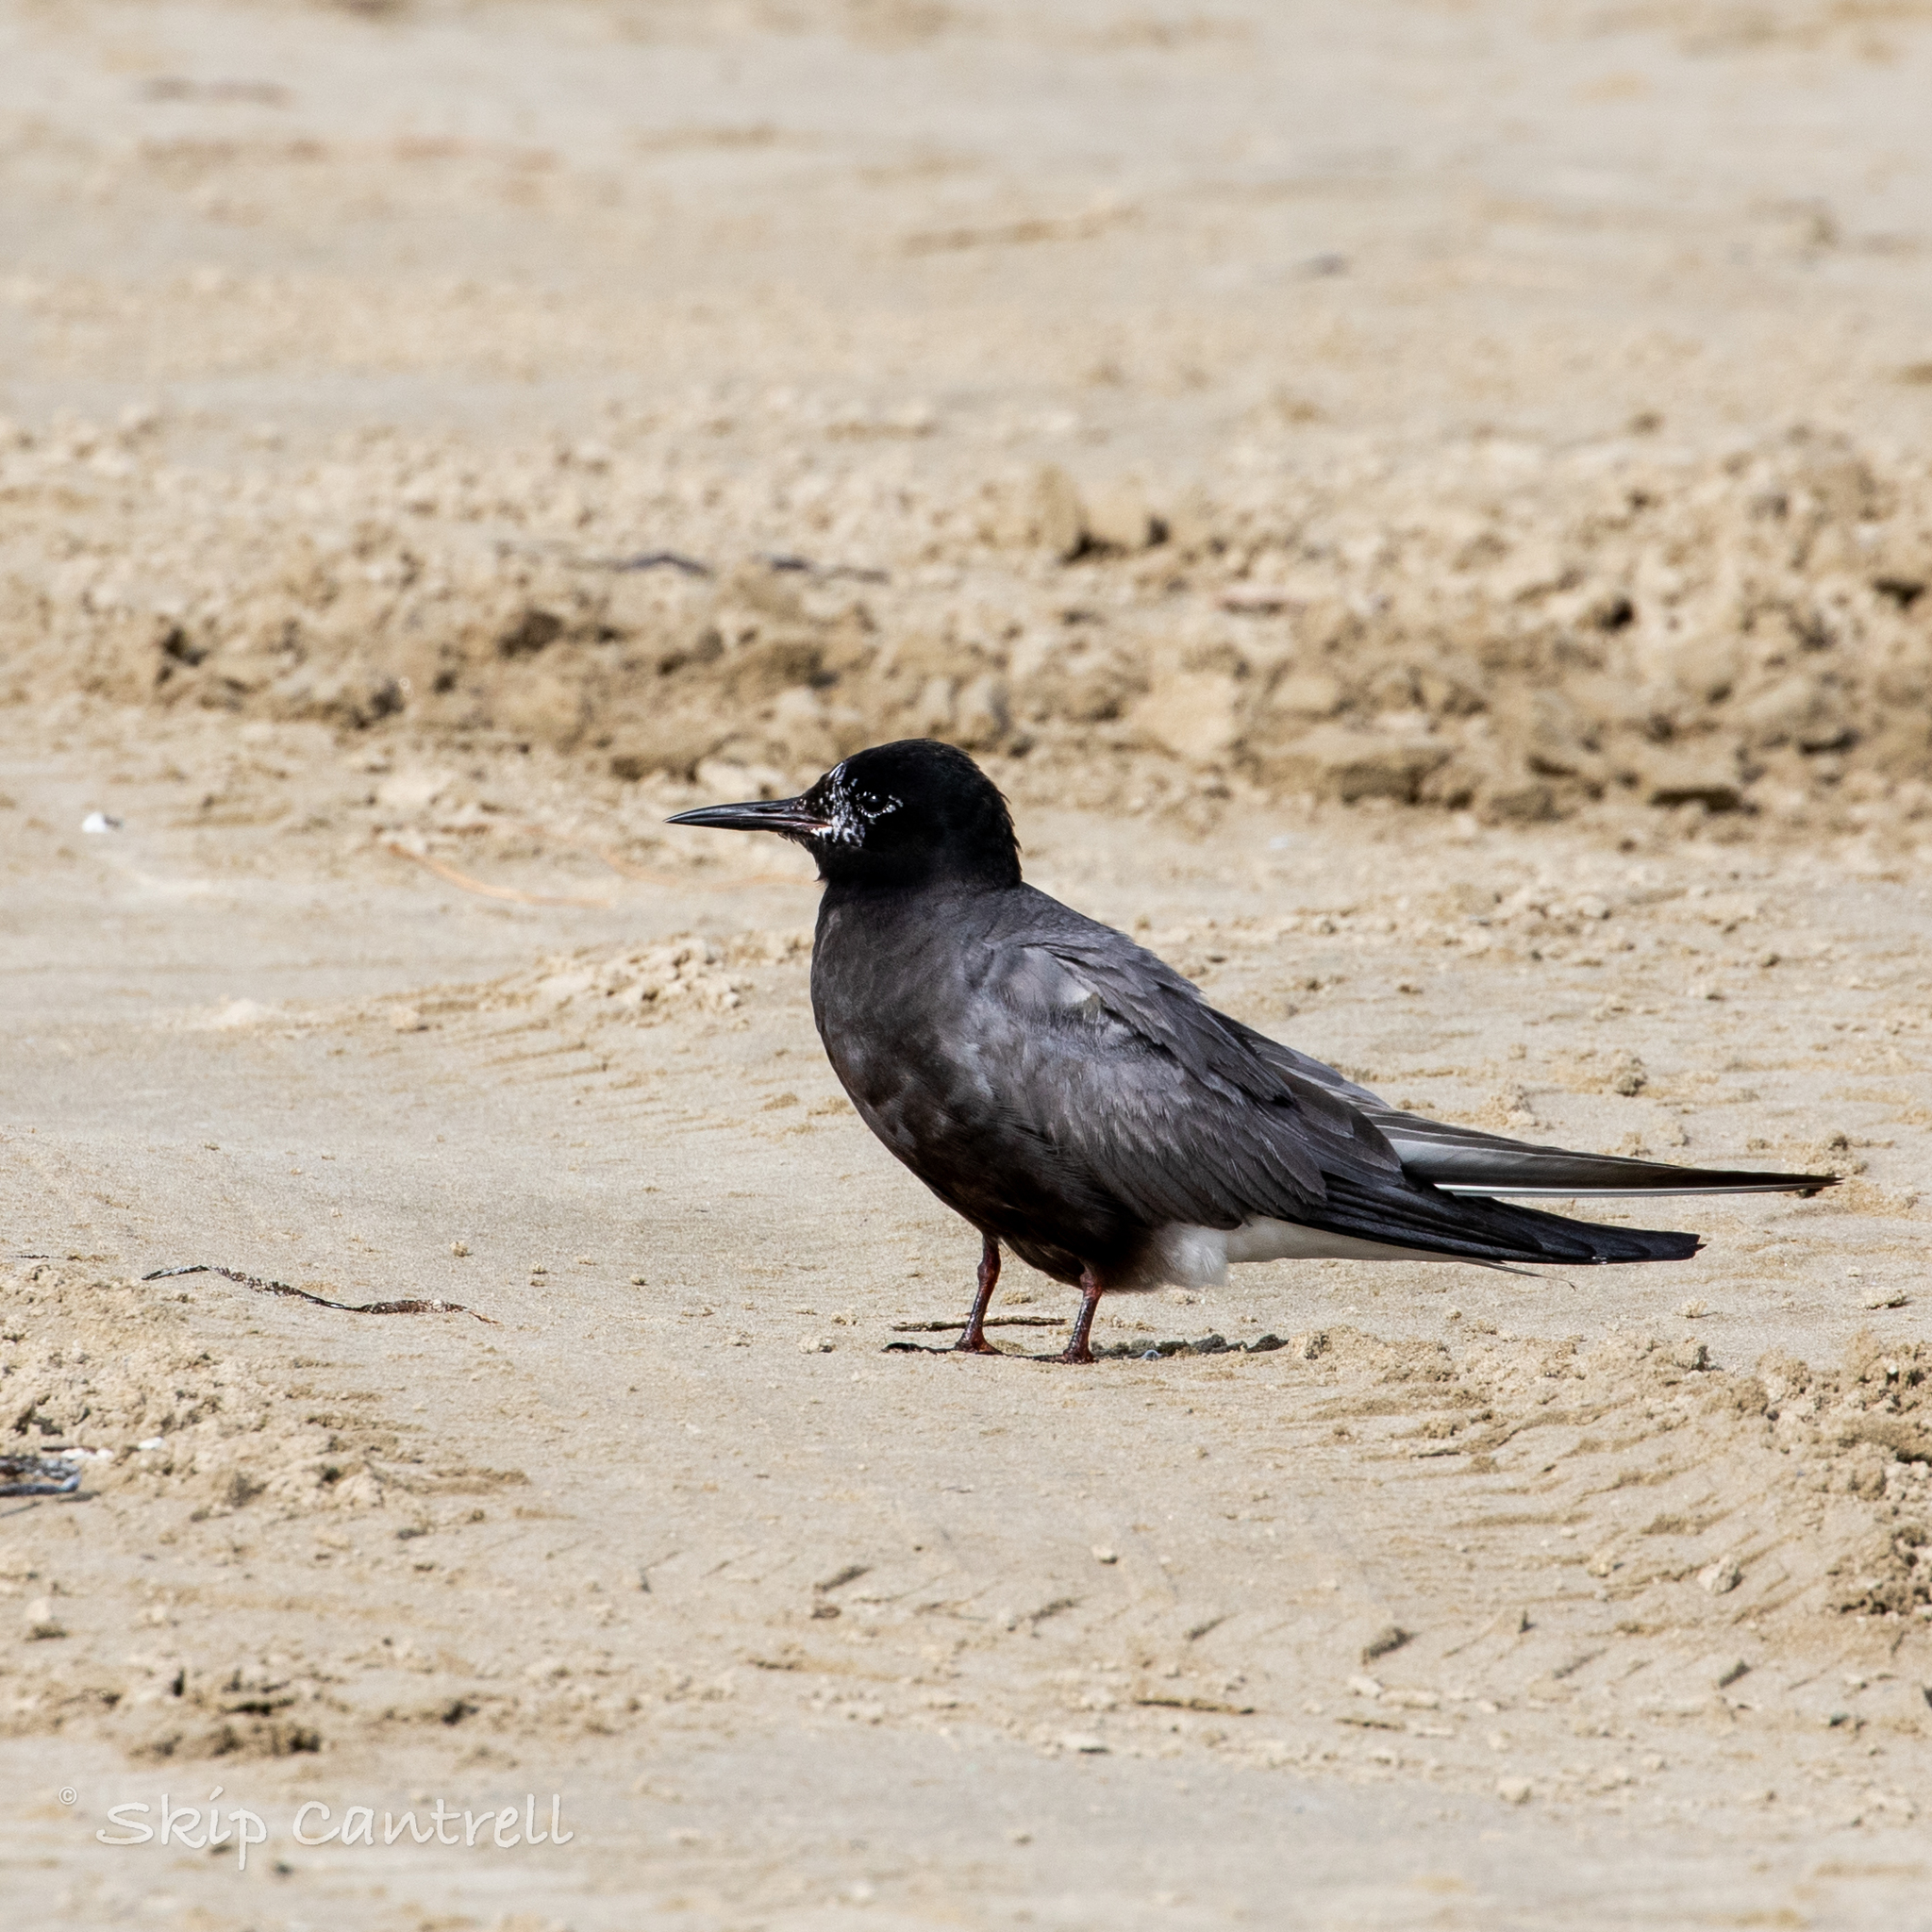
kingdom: Animalia
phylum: Chordata
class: Aves
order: Charadriiformes
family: Laridae
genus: Chlidonias
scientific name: Chlidonias niger
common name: Black tern
